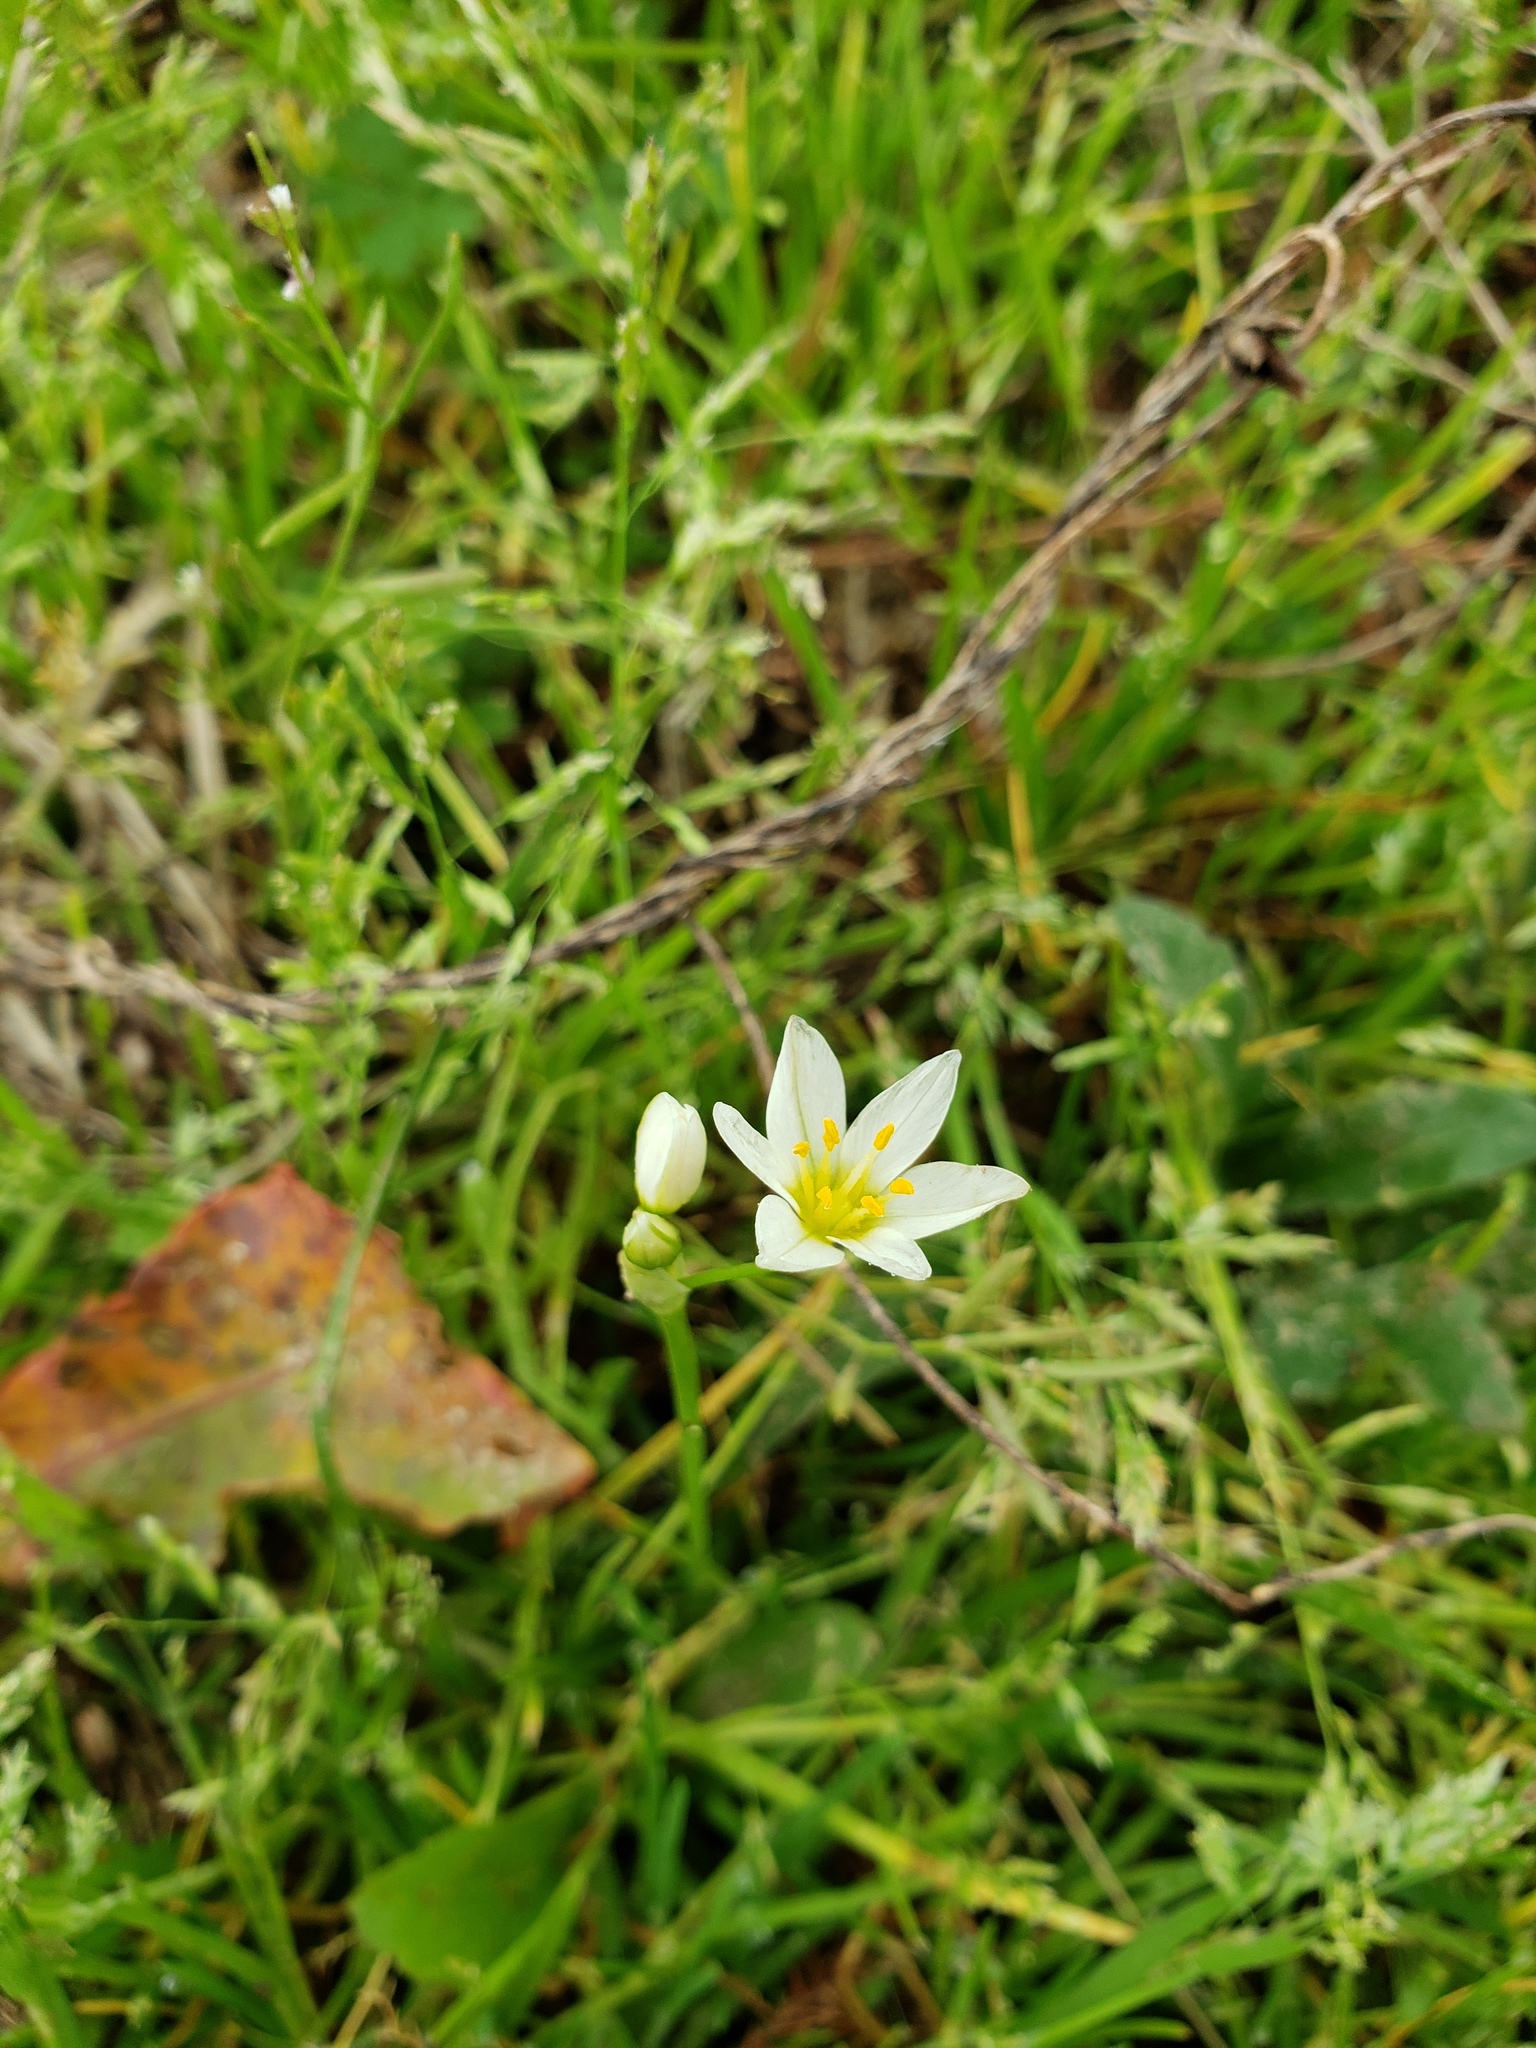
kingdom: Plantae
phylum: Tracheophyta
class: Liliopsida
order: Asparagales
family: Amaryllidaceae
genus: Nothoscordum
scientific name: Nothoscordum bivalve
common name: Crow-poison
